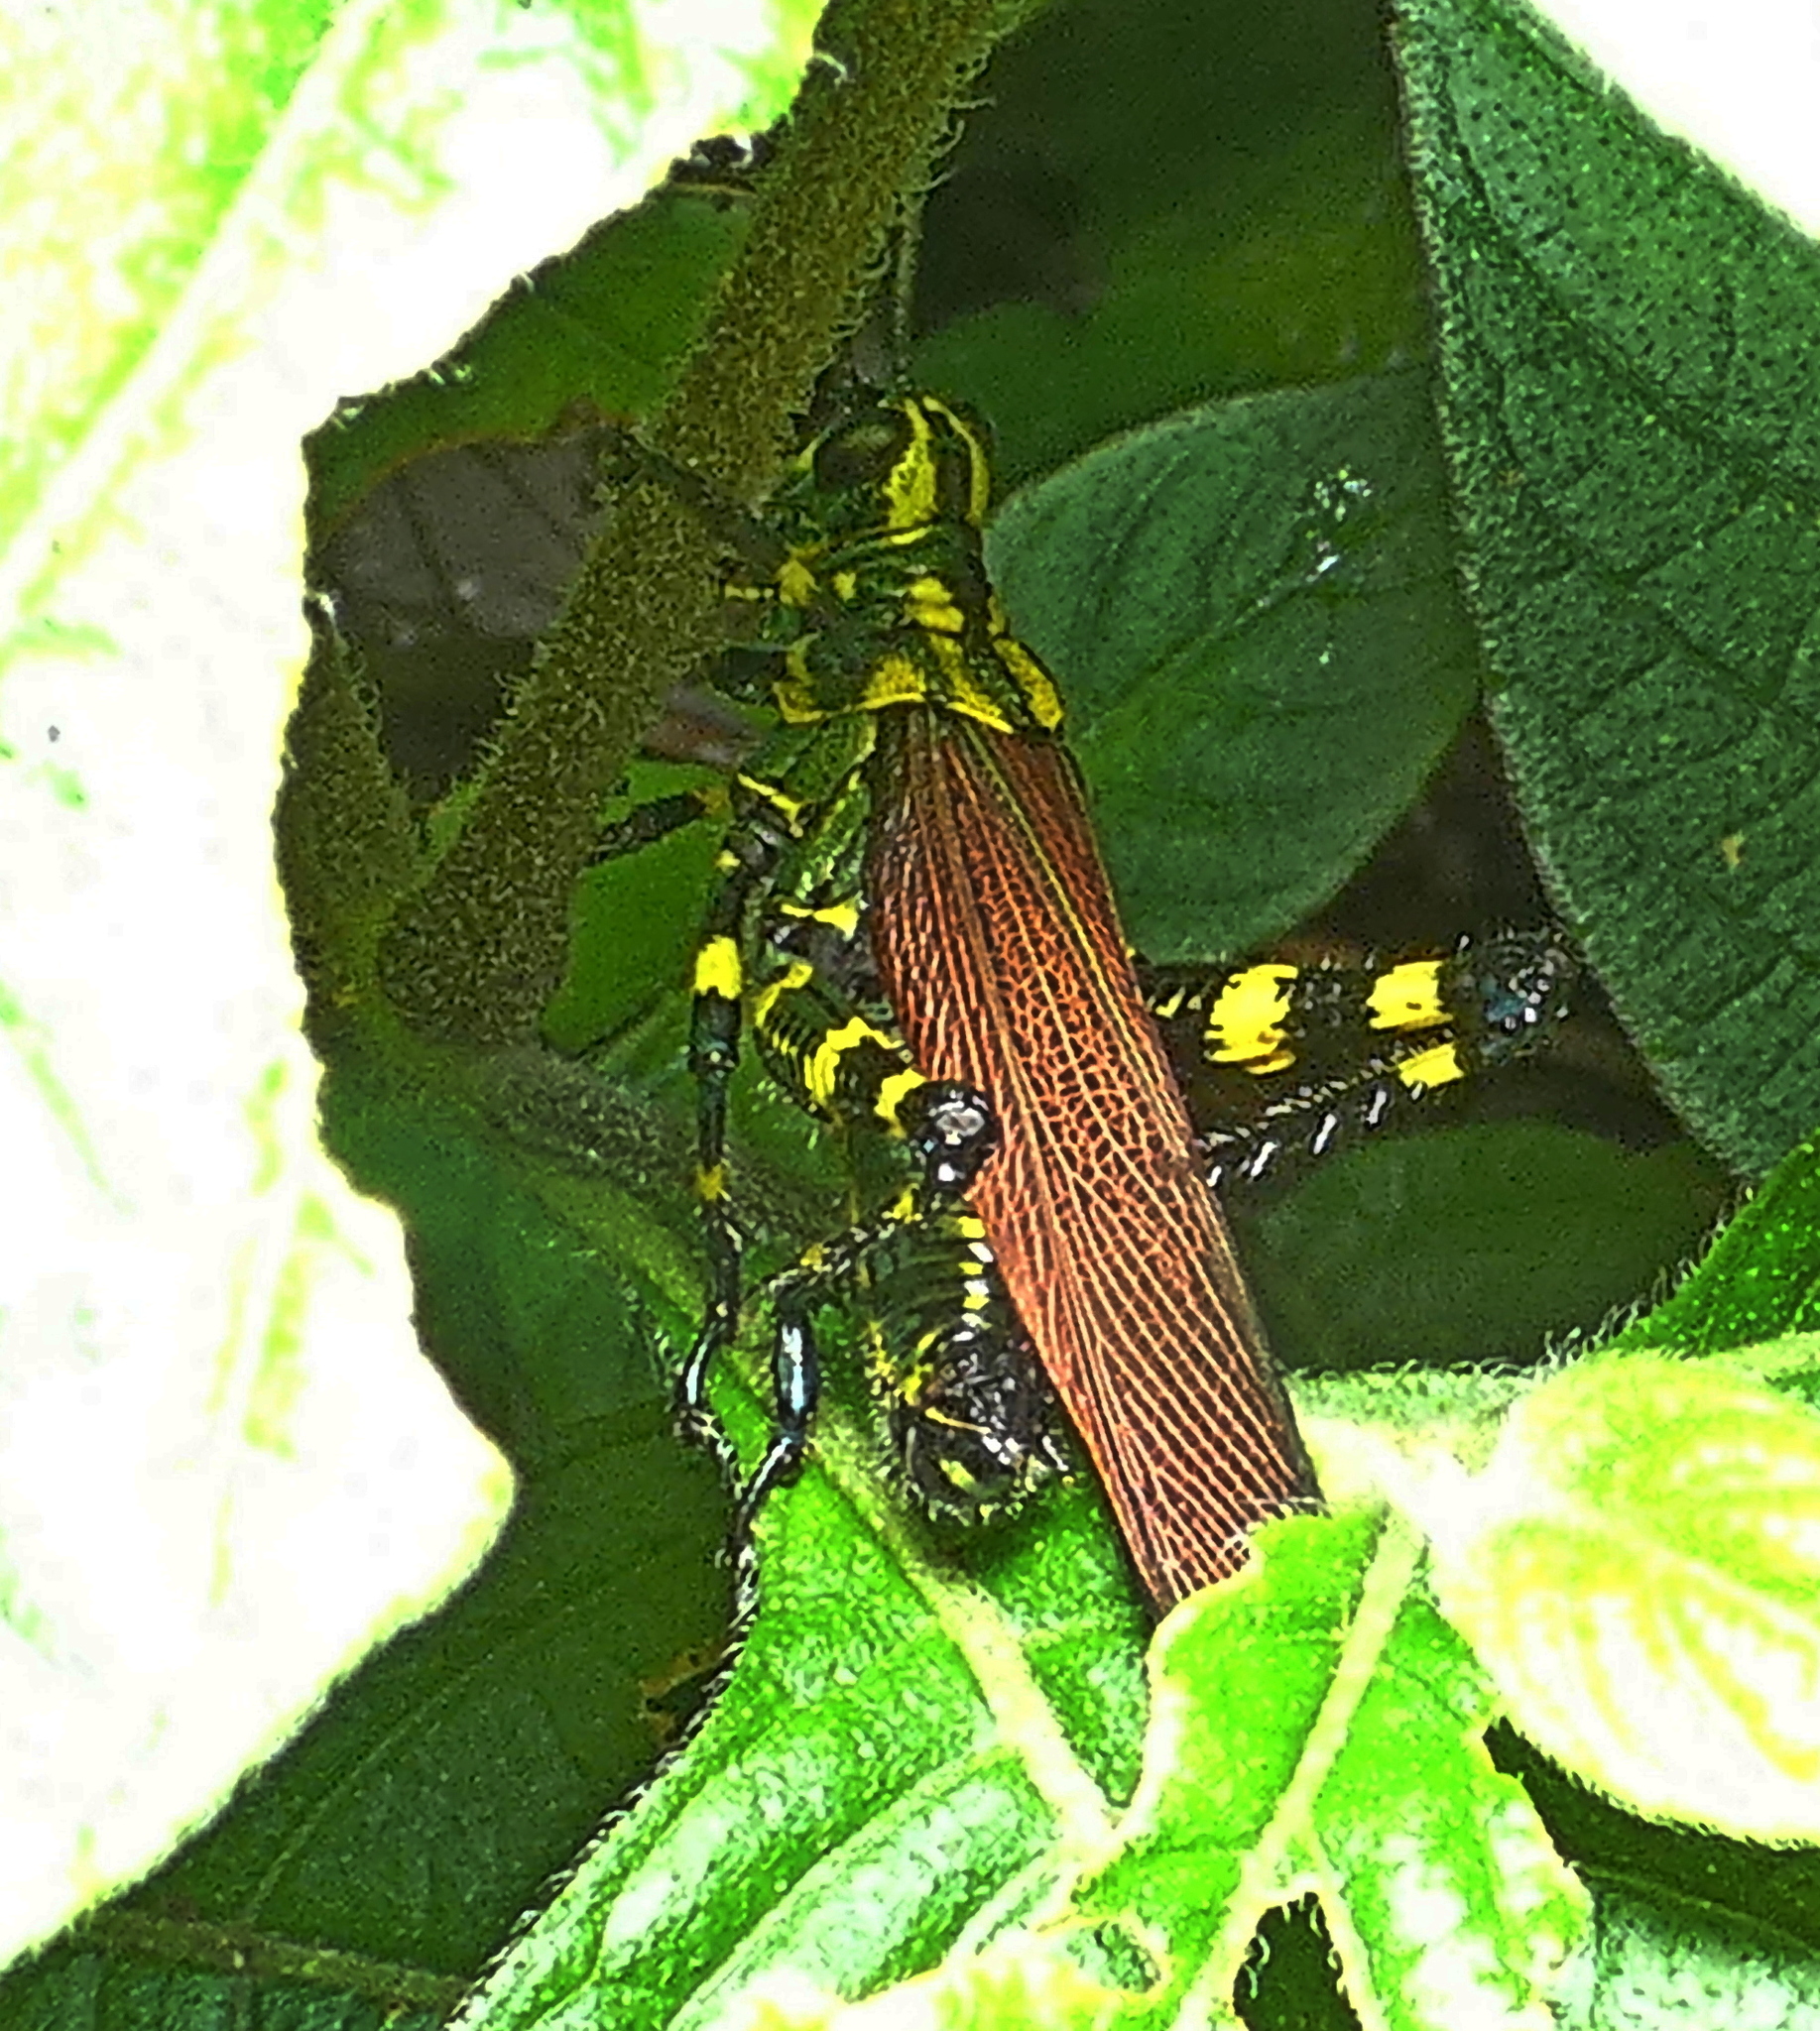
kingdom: Animalia
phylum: Arthropoda
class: Insecta
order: Orthoptera
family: Romaleidae
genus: Chromacris
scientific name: Chromacris speciosa
